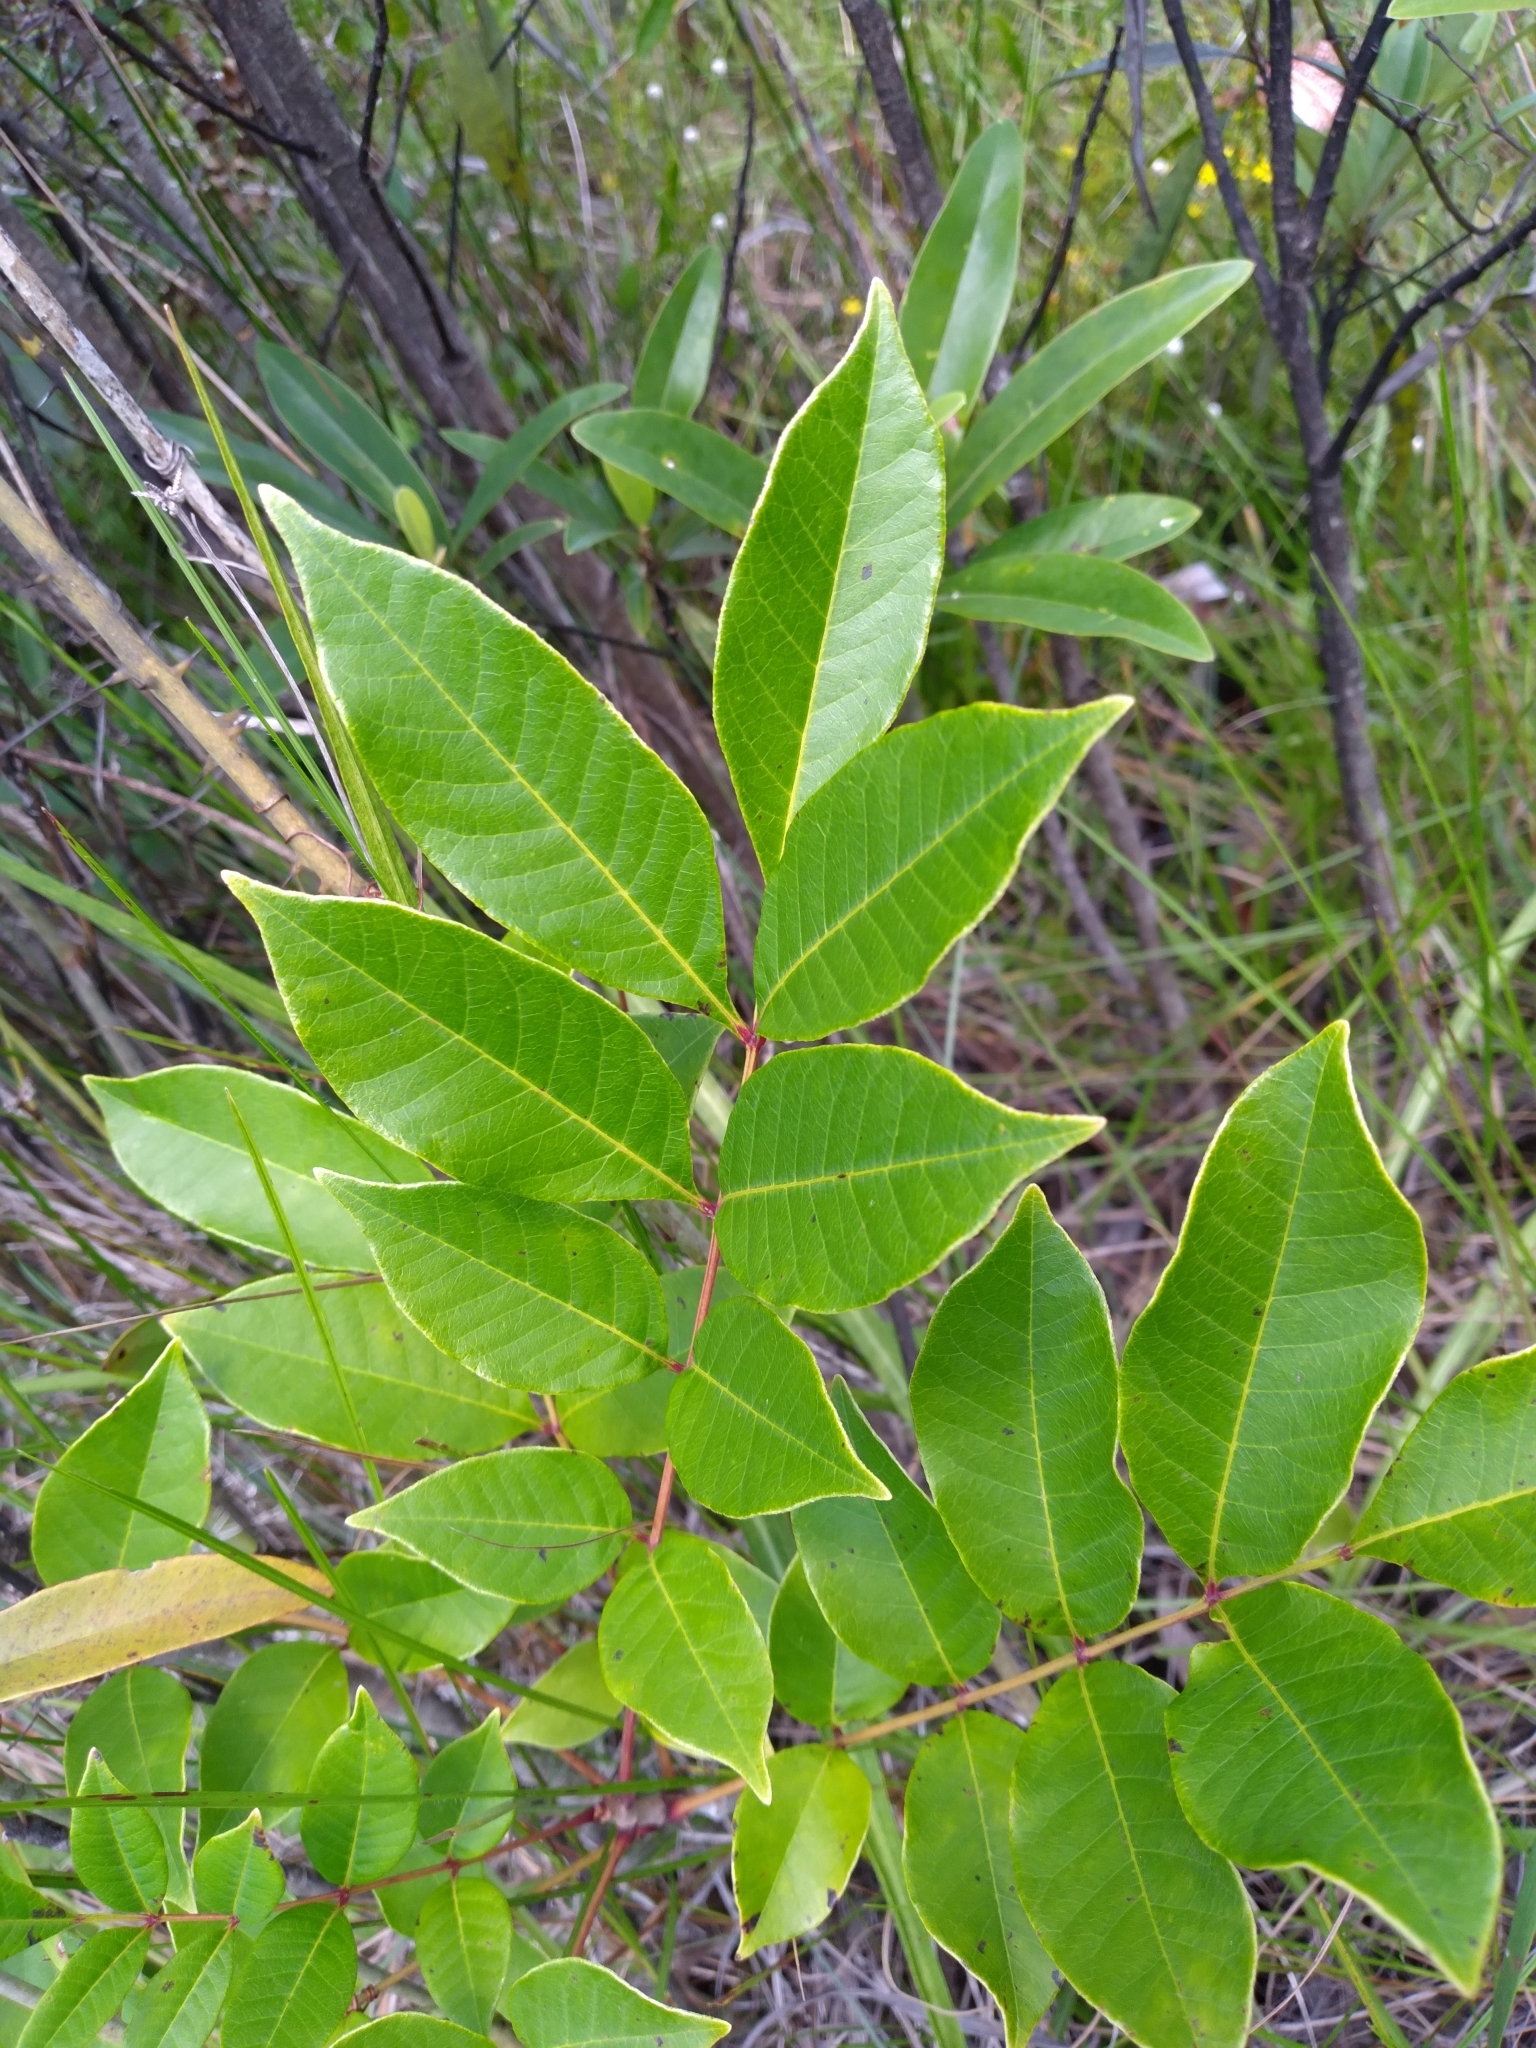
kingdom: Plantae
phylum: Tracheophyta
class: Magnoliopsida
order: Sapindales
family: Anacardiaceae
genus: Toxicodendron
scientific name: Toxicodendron vernix
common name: Poison sumac
